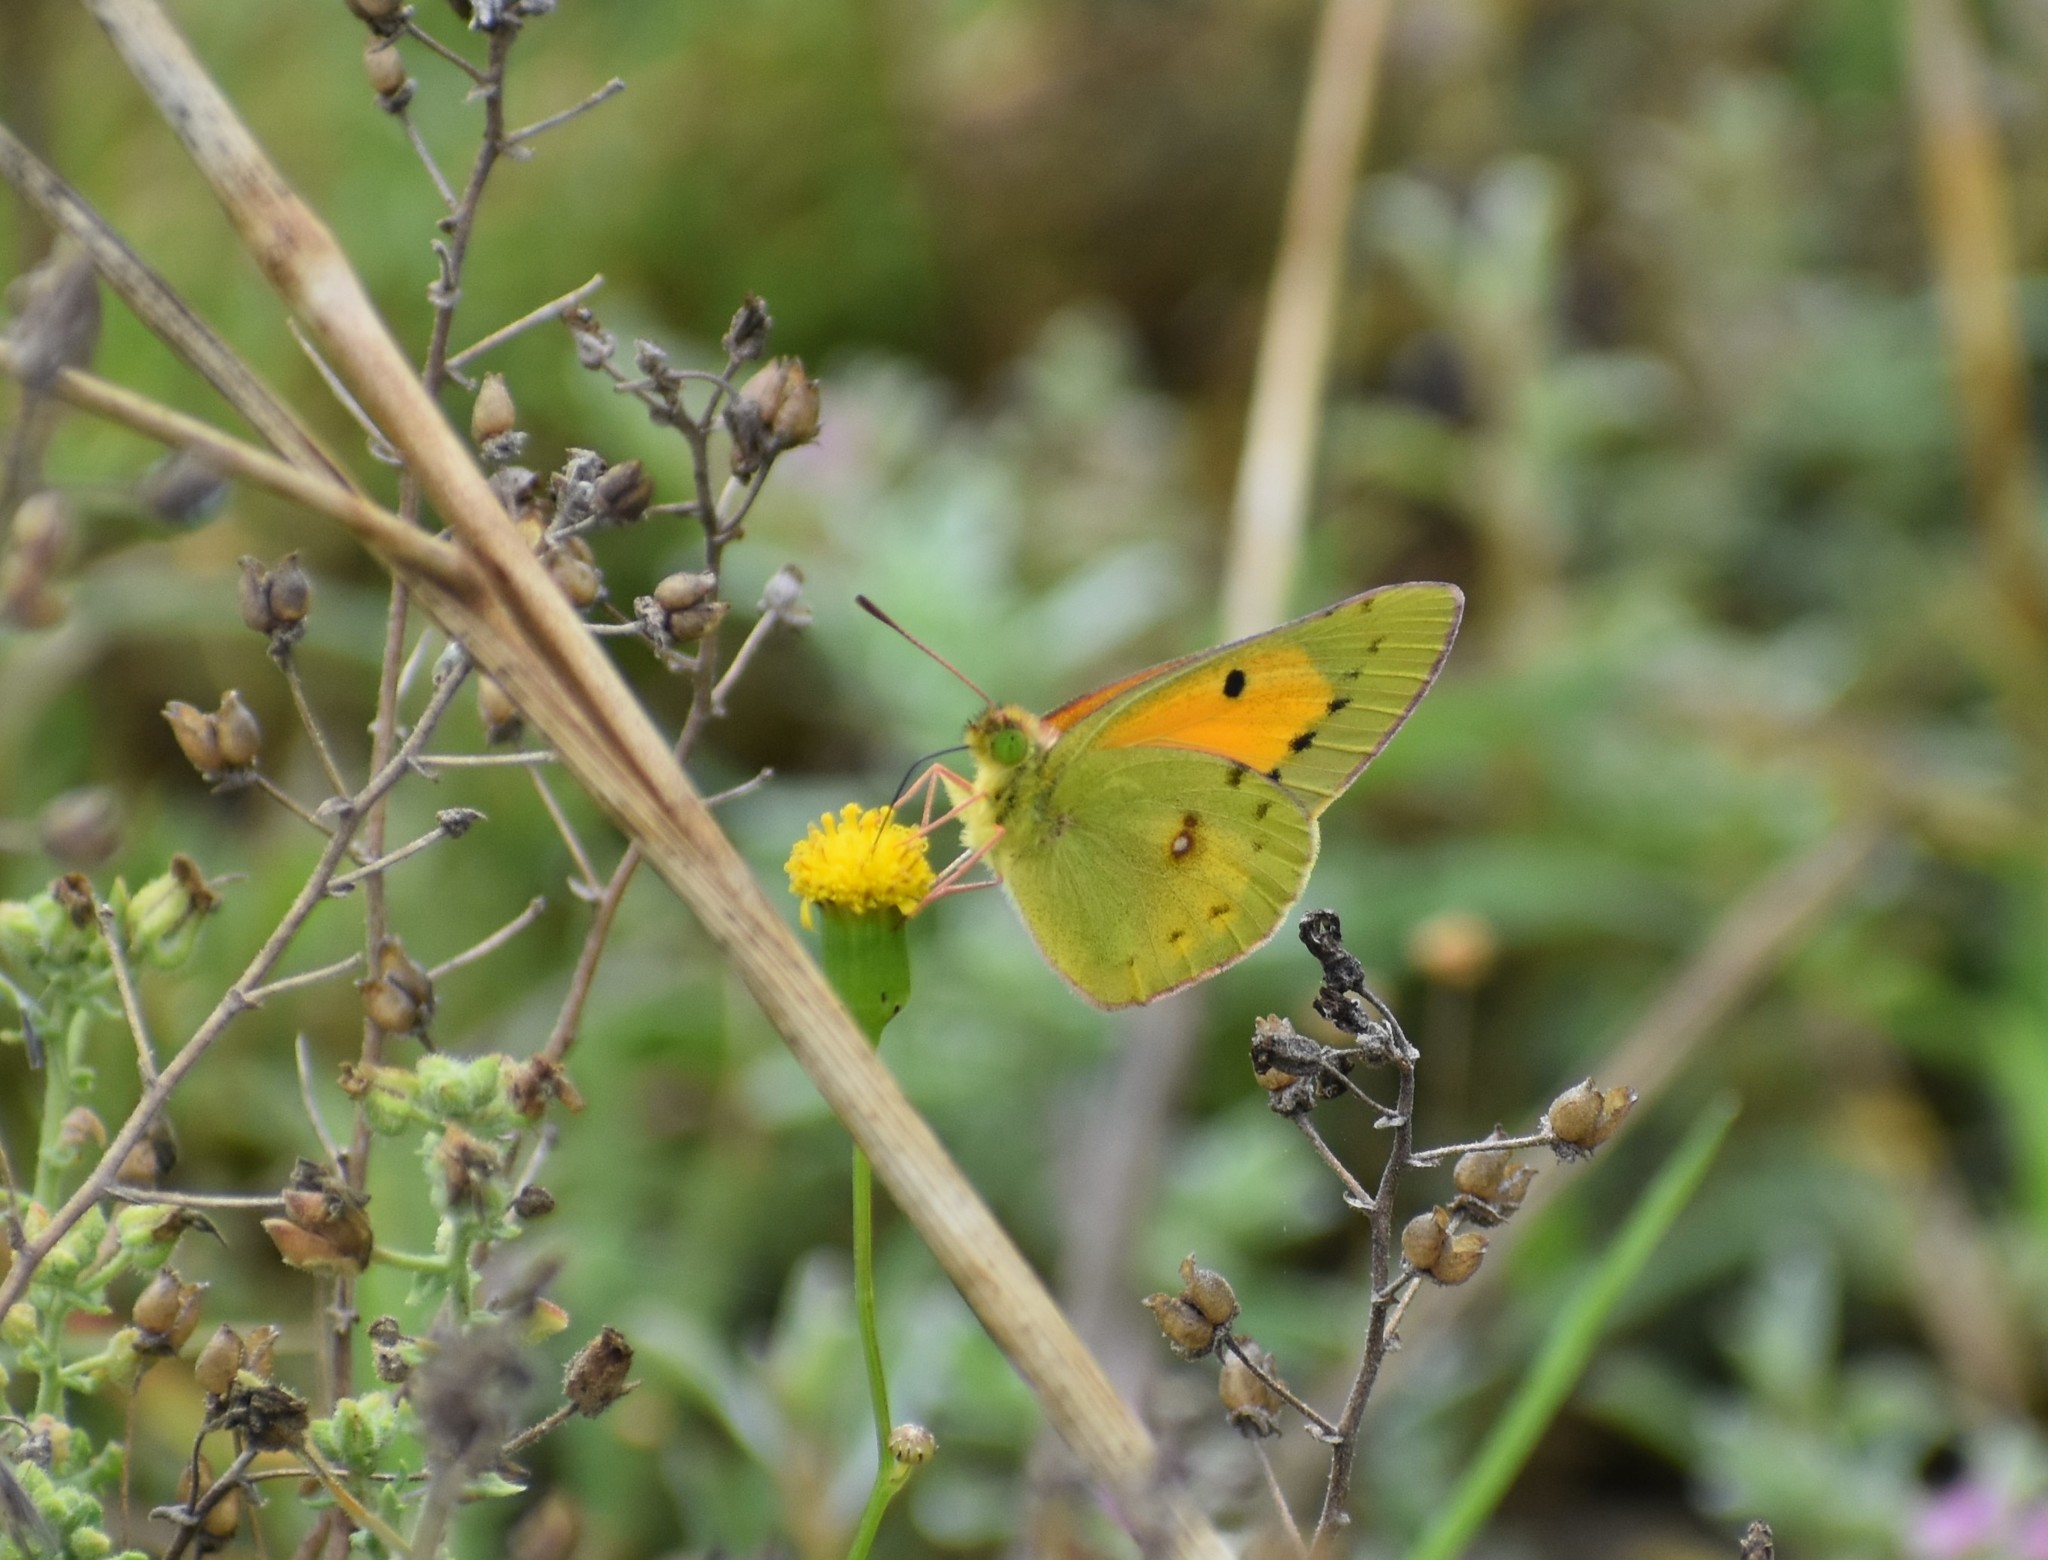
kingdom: Animalia
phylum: Arthropoda
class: Insecta
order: Lepidoptera
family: Pieridae
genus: Colias
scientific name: Colias electo
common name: African clouded yellow
